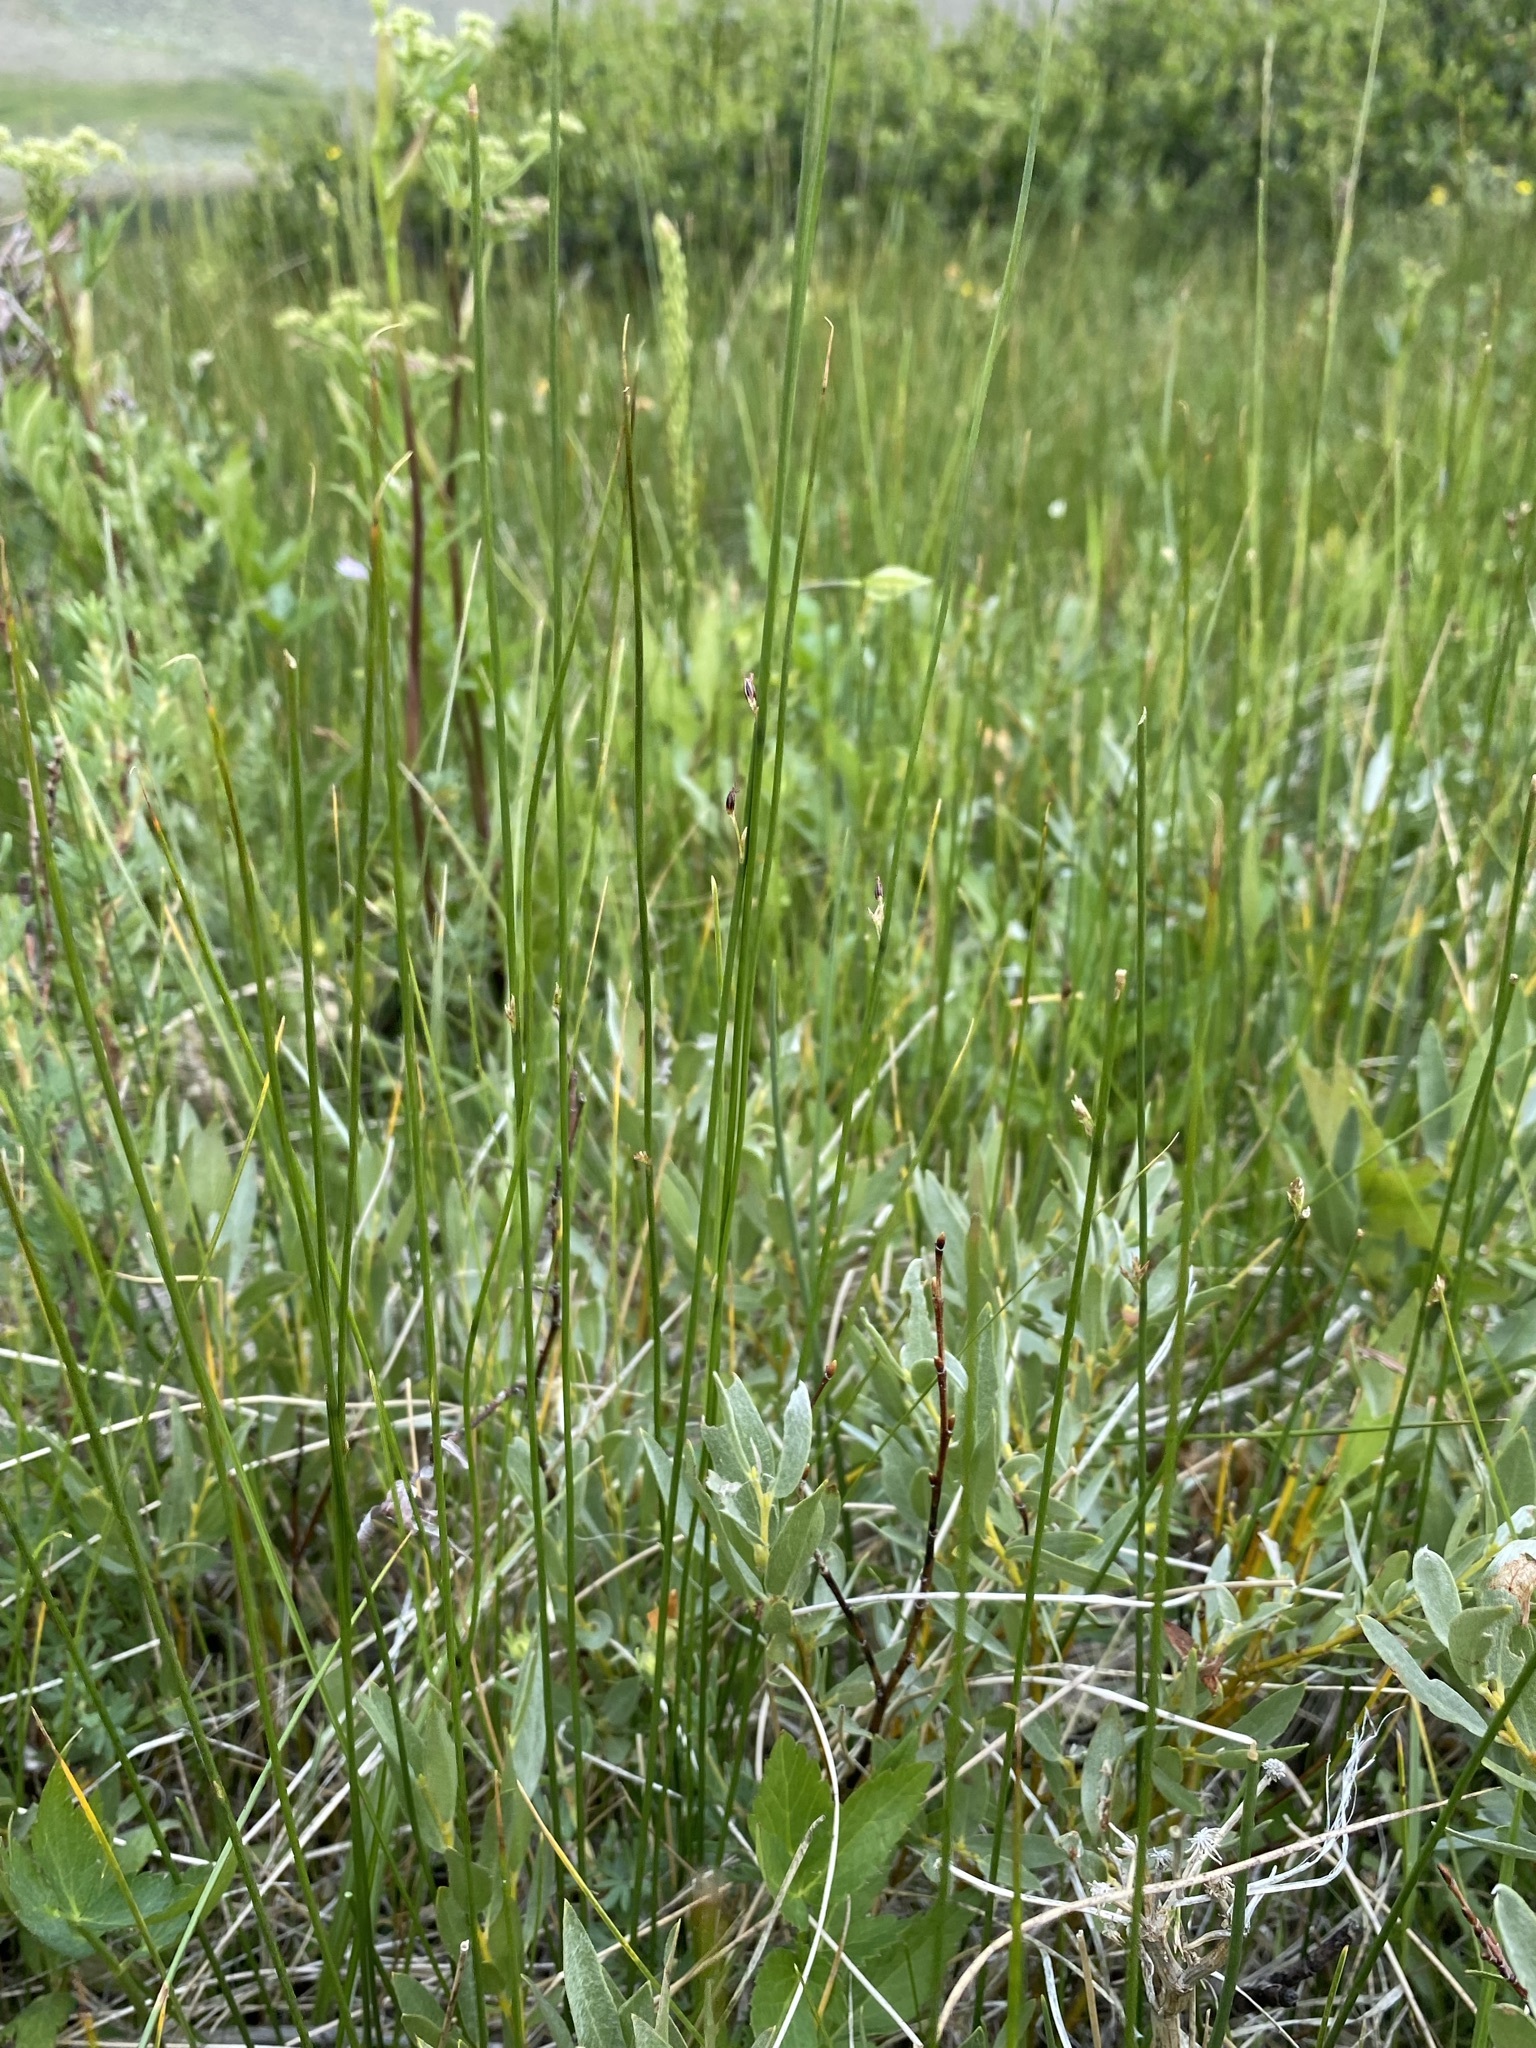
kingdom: Plantae
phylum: Tracheophyta
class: Liliopsida
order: Poales
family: Juncaceae
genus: Juncus
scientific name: Juncus filiformis
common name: Thread rush
